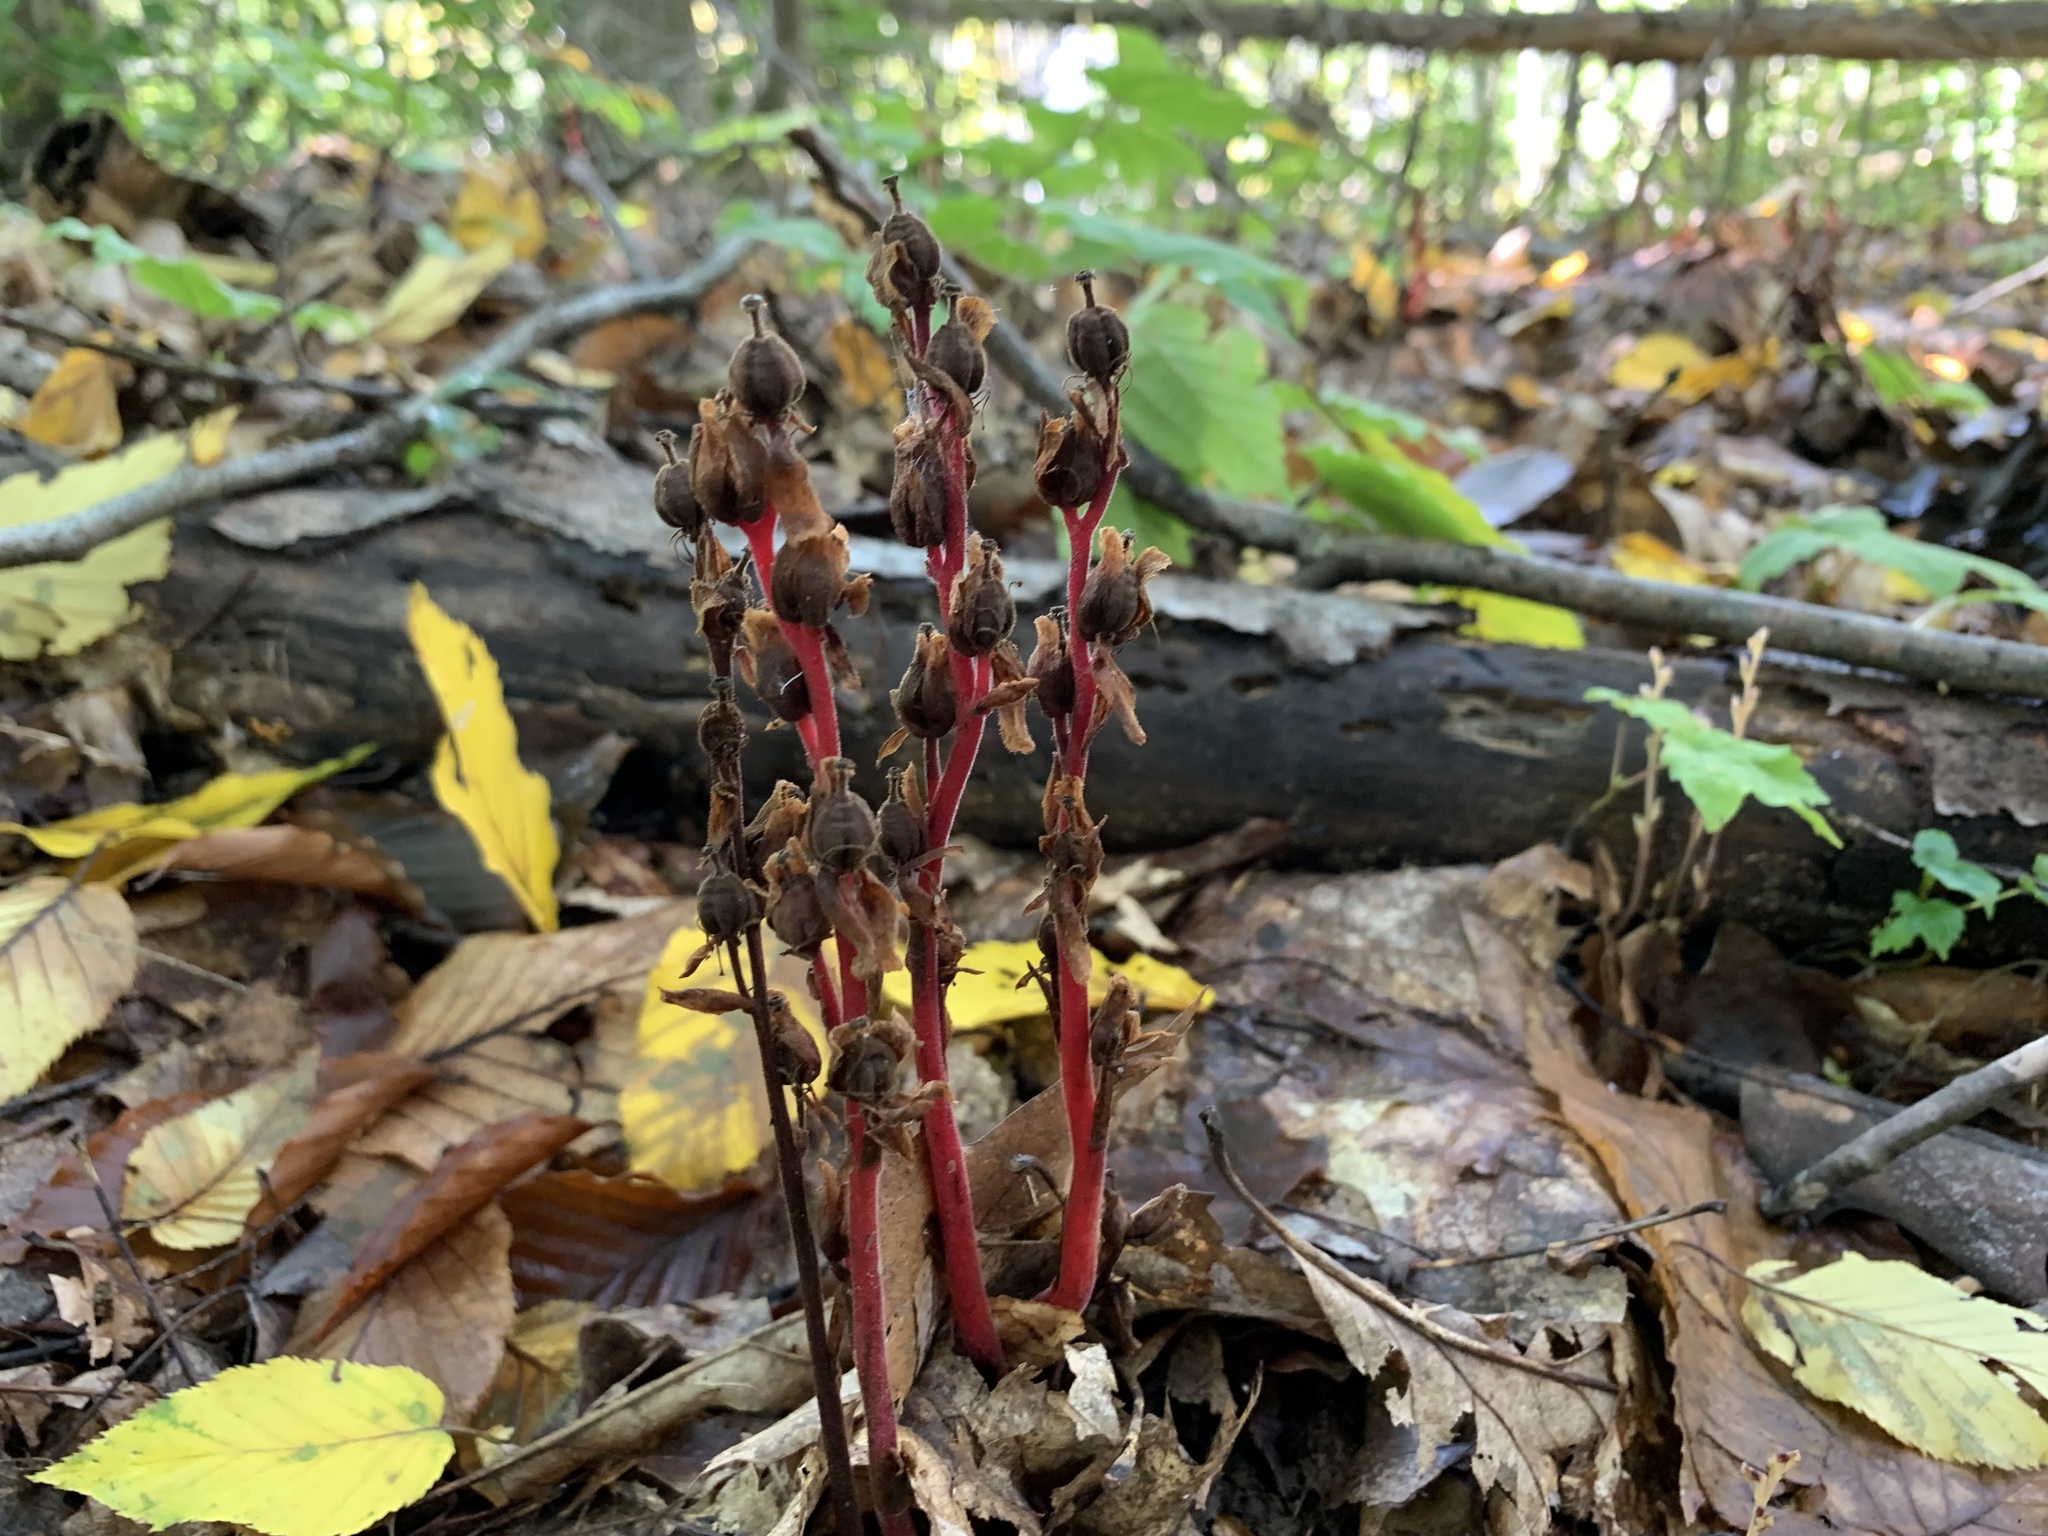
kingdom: Plantae
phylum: Tracheophyta
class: Magnoliopsida
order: Ericales
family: Ericaceae
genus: Hypopitys
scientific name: Hypopitys monotropa
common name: Yellow bird's-nest
